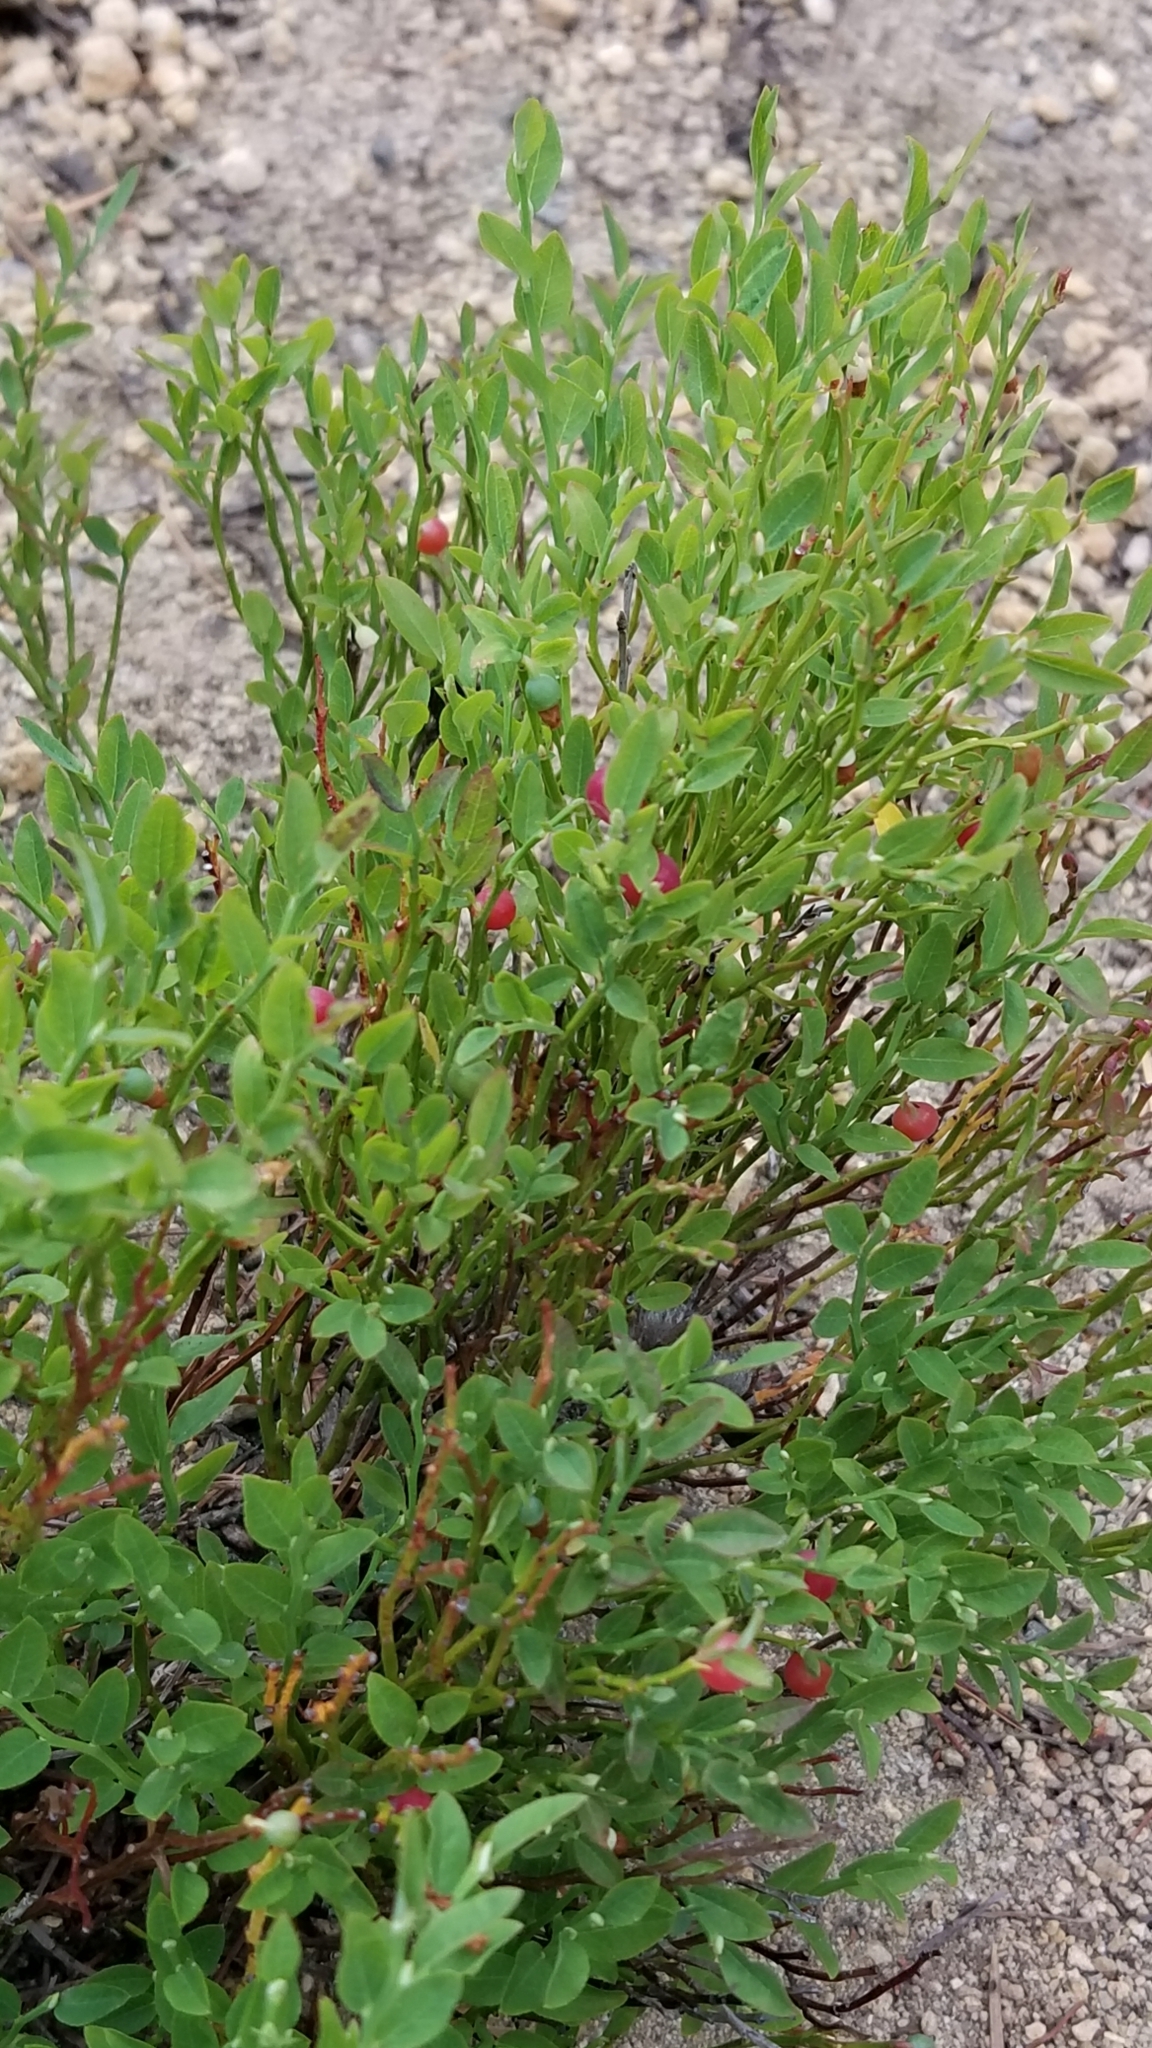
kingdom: Plantae
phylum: Tracheophyta
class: Magnoliopsida
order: Ericales
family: Ericaceae
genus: Vaccinium
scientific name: Vaccinium scoparium
